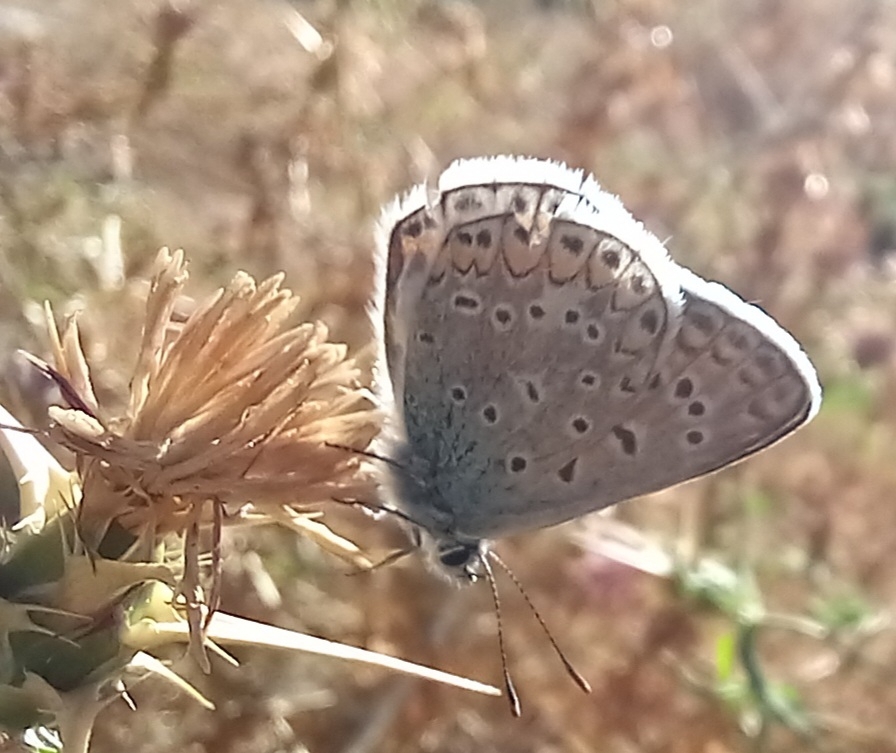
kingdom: Animalia
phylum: Arthropoda
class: Insecta
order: Lepidoptera
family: Lycaenidae
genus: Polyommatus
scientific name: Polyommatus icarus
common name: Common blue
